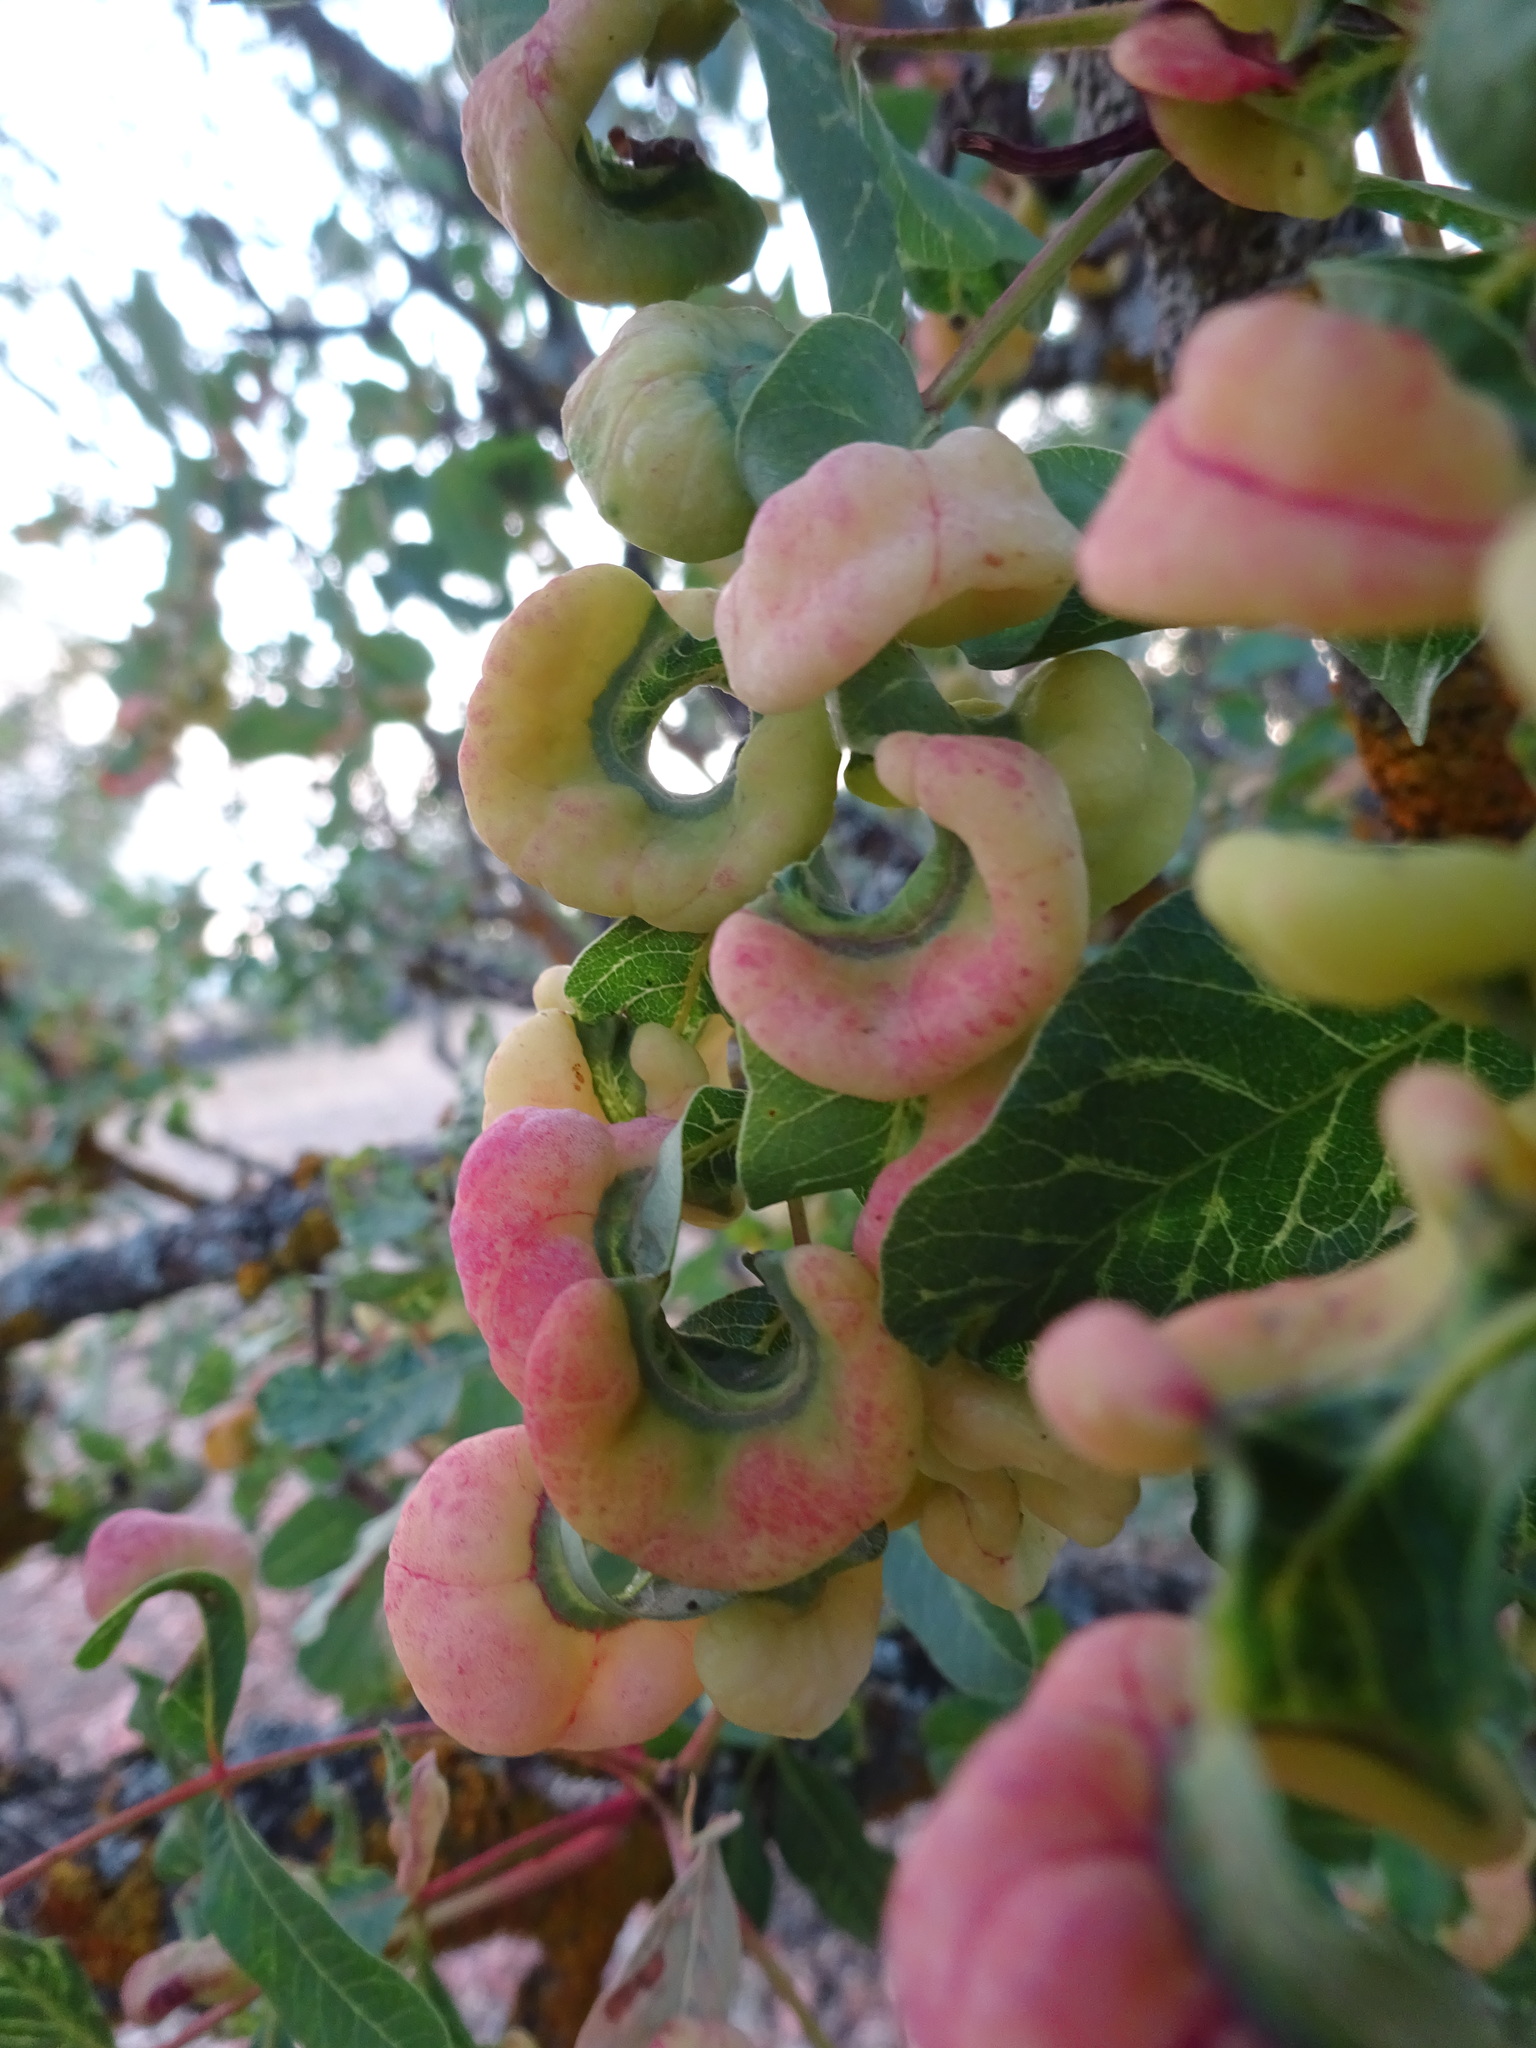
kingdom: Animalia
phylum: Arthropoda
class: Insecta
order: Hemiptera
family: Aphididae
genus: Forda
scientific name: Forda formicaria
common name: Root aphid
